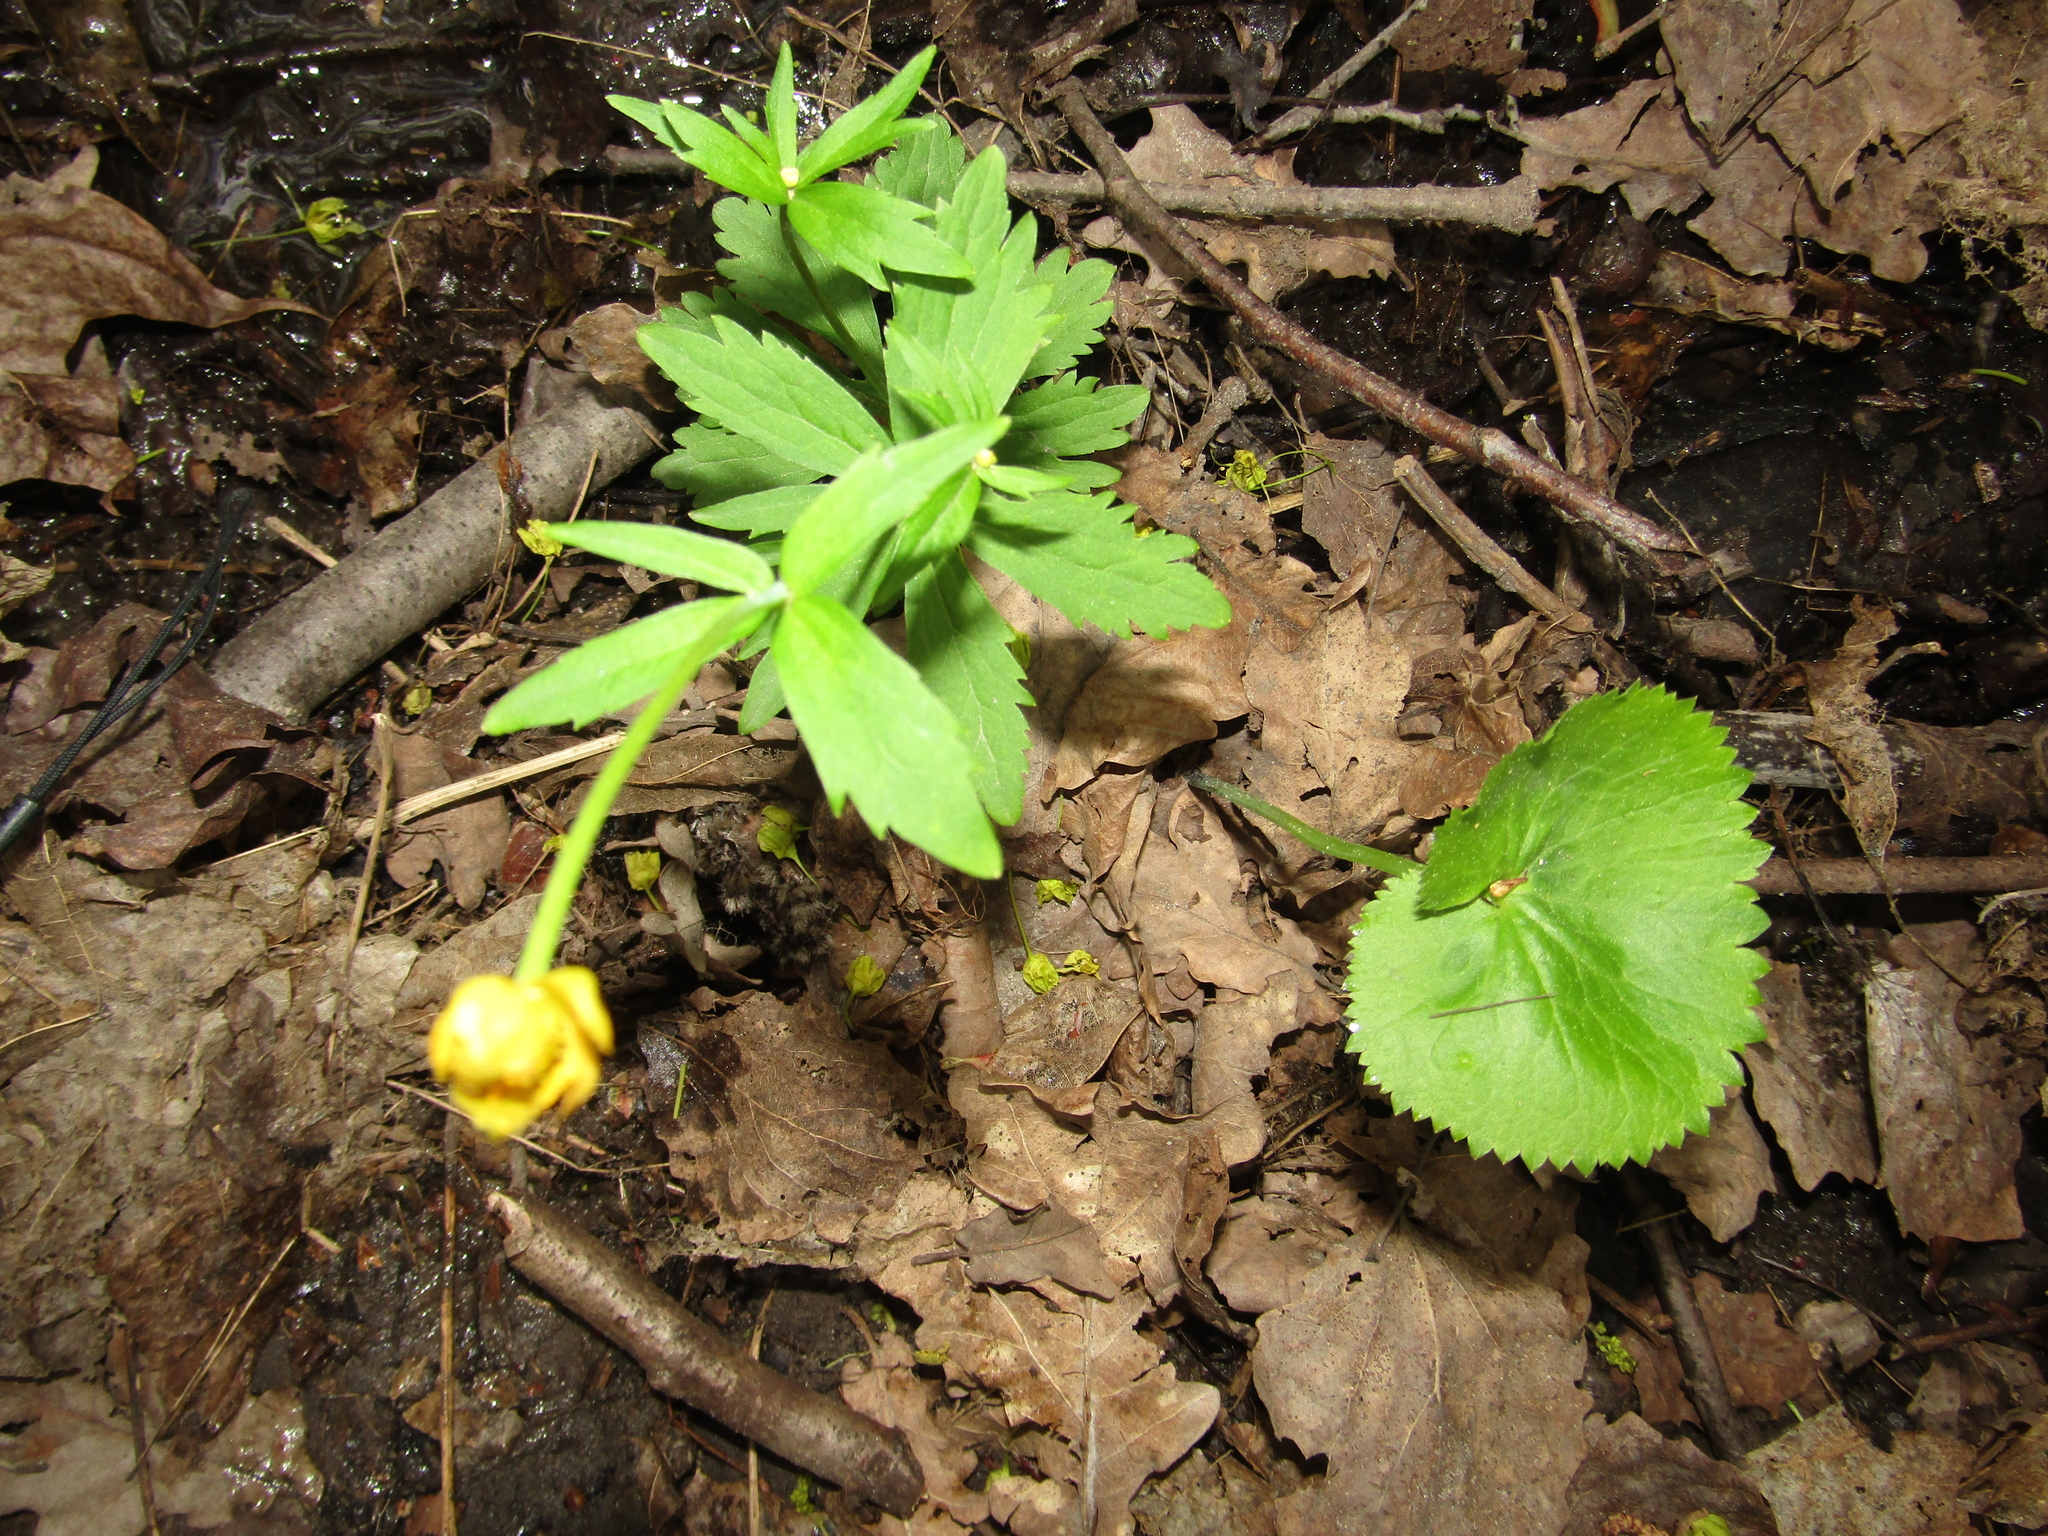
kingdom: Plantae
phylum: Tracheophyta
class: Magnoliopsida
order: Ranunculales
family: Ranunculaceae
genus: Ranunculus
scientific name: Ranunculus cassubicus
